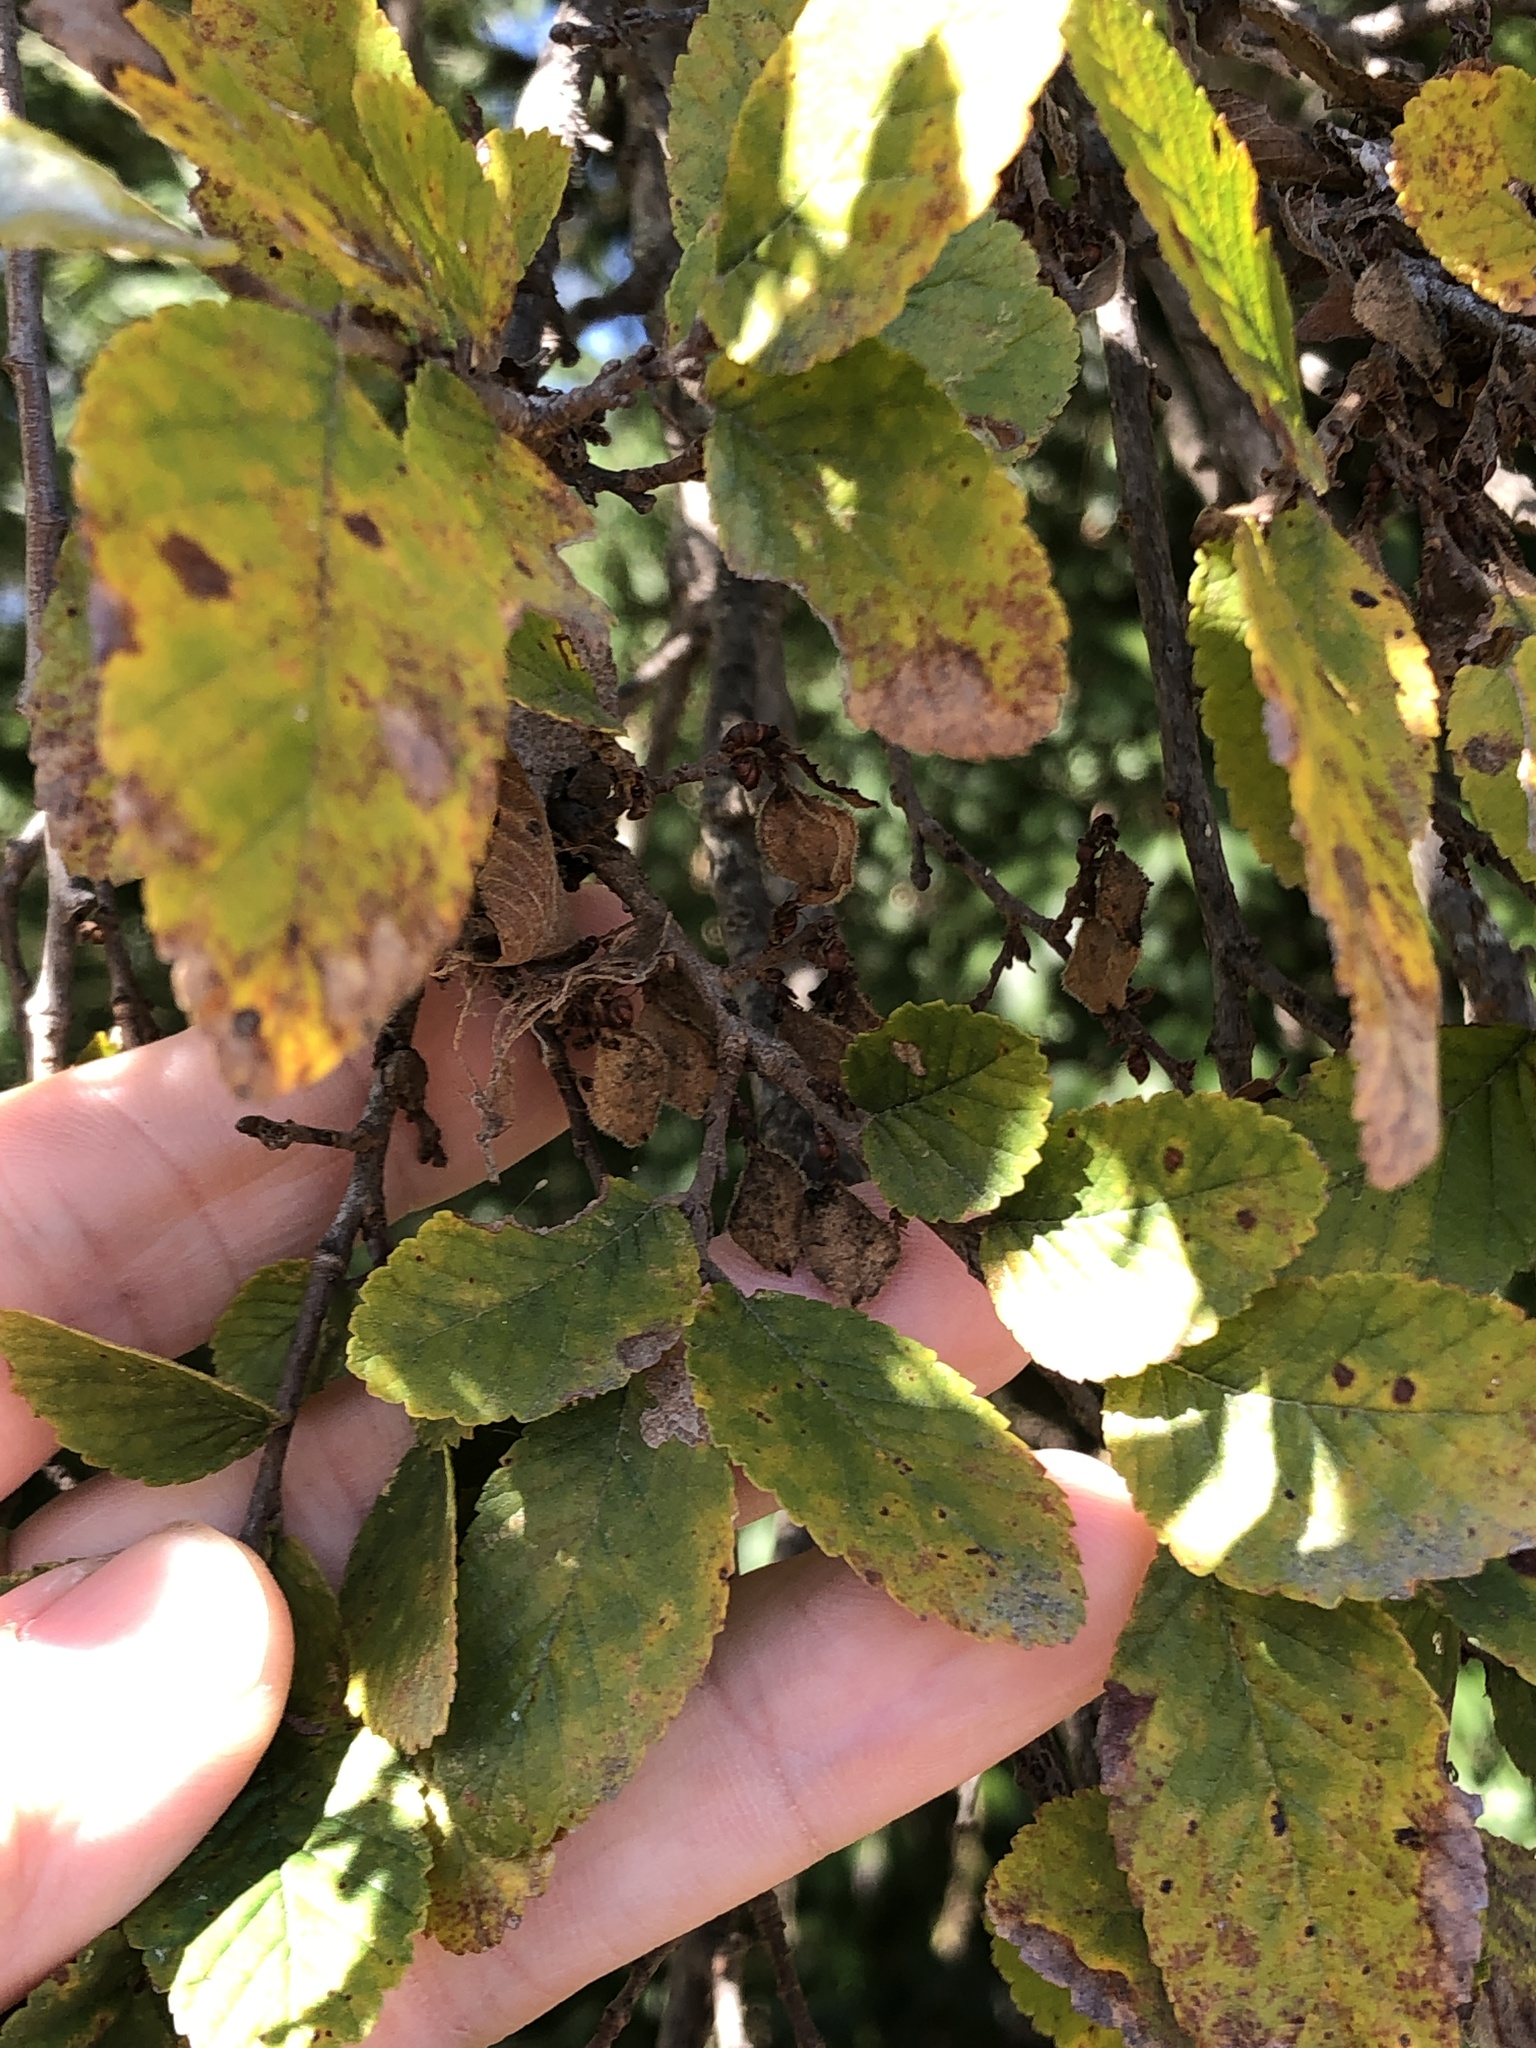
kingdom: Plantae
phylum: Tracheophyta
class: Magnoliopsida
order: Rosales
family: Ulmaceae
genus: Ulmus
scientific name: Ulmus crassifolia
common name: Basket elm
